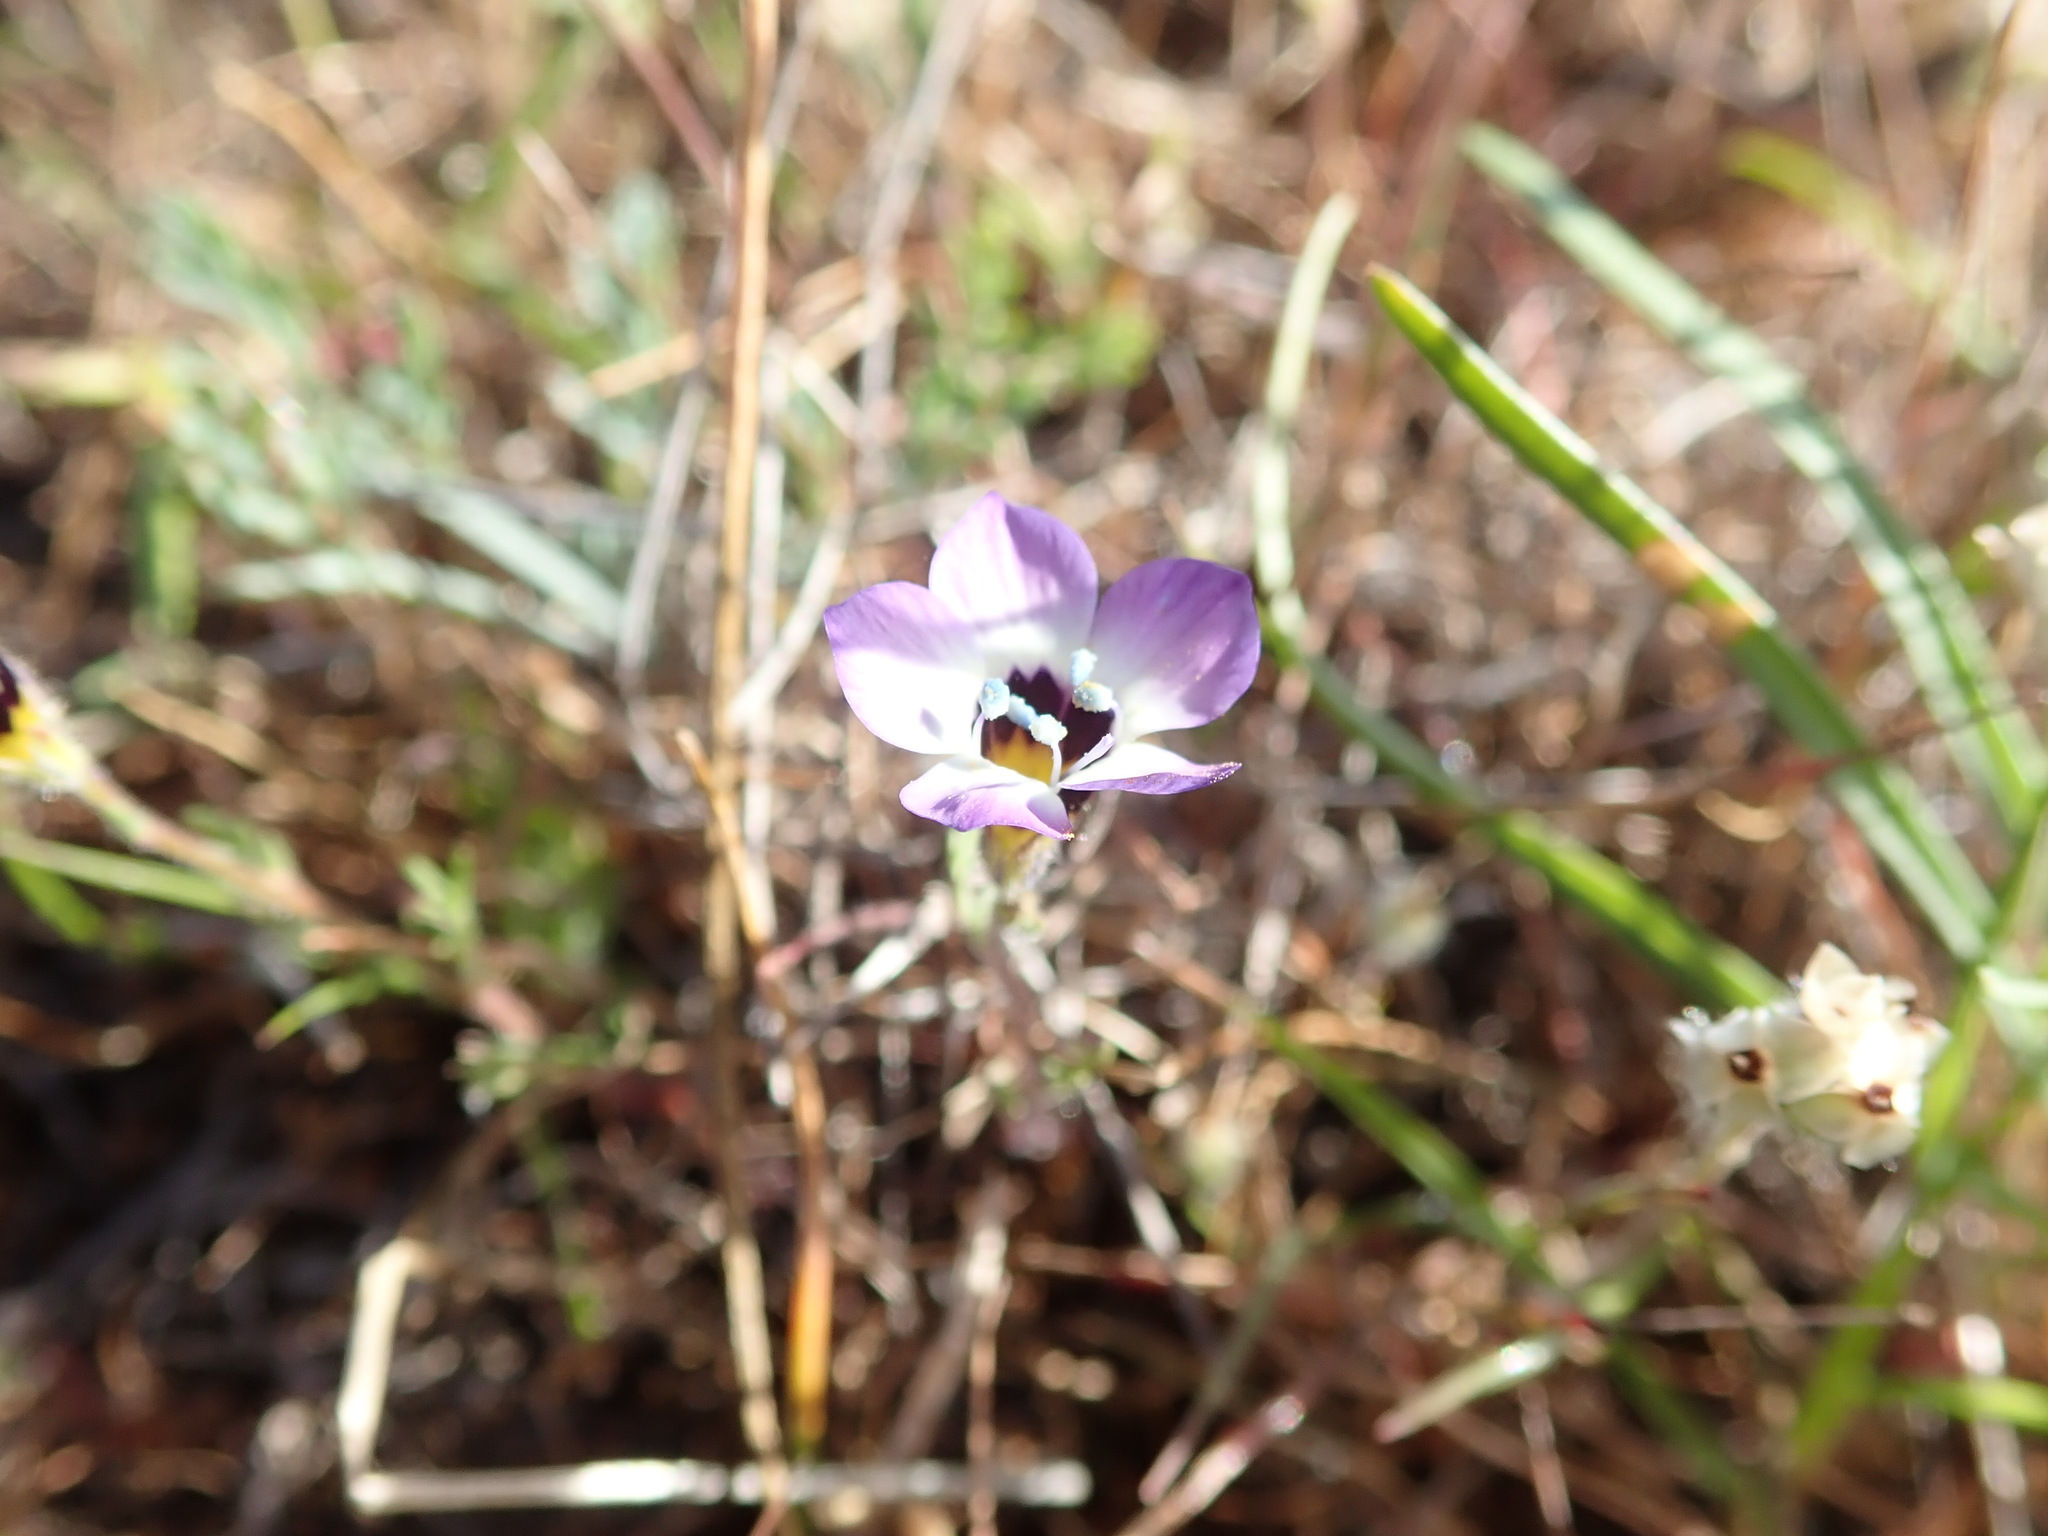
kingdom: Plantae
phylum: Tracheophyta
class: Magnoliopsida
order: Ericales
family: Polemoniaceae
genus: Gilia
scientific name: Gilia tricolor
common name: Bird's-eyes
